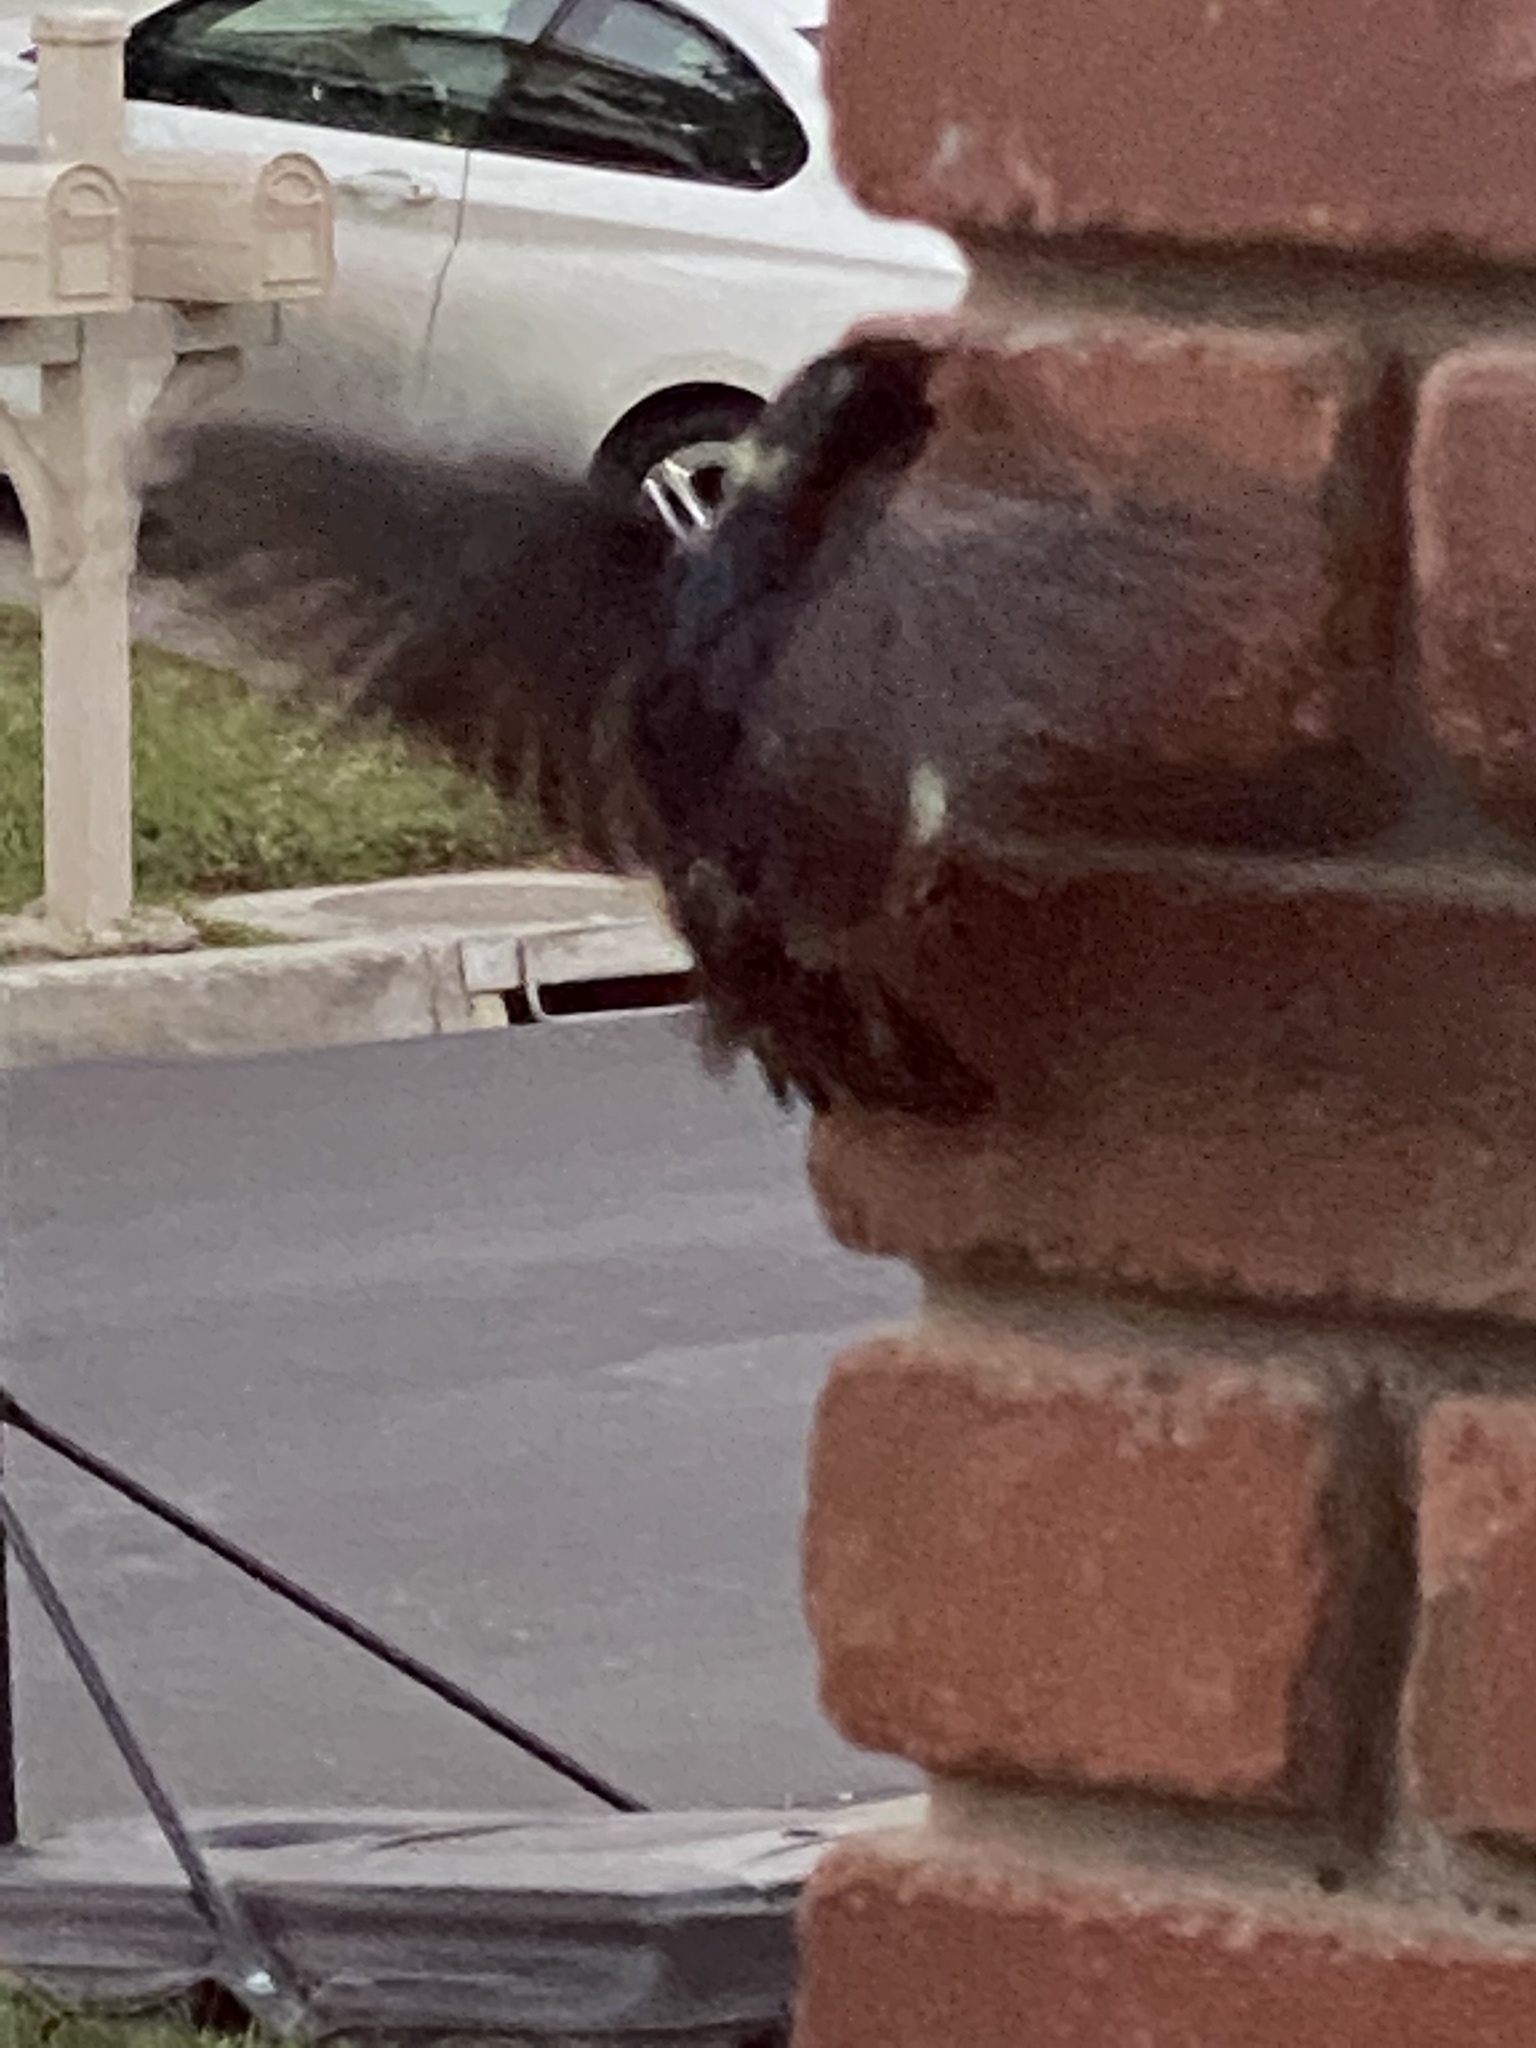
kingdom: Animalia
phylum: Chordata
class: Aves
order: Passeriformes
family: Hirundinidae
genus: Hirundo
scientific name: Hirundo rustica
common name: Barn swallow
